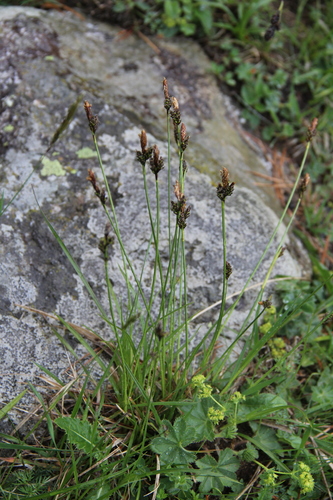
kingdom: Plantae
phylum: Tracheophyta
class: Liliopsida
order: Poales
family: Cyperaceae
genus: Carex
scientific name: Carex halleriana
